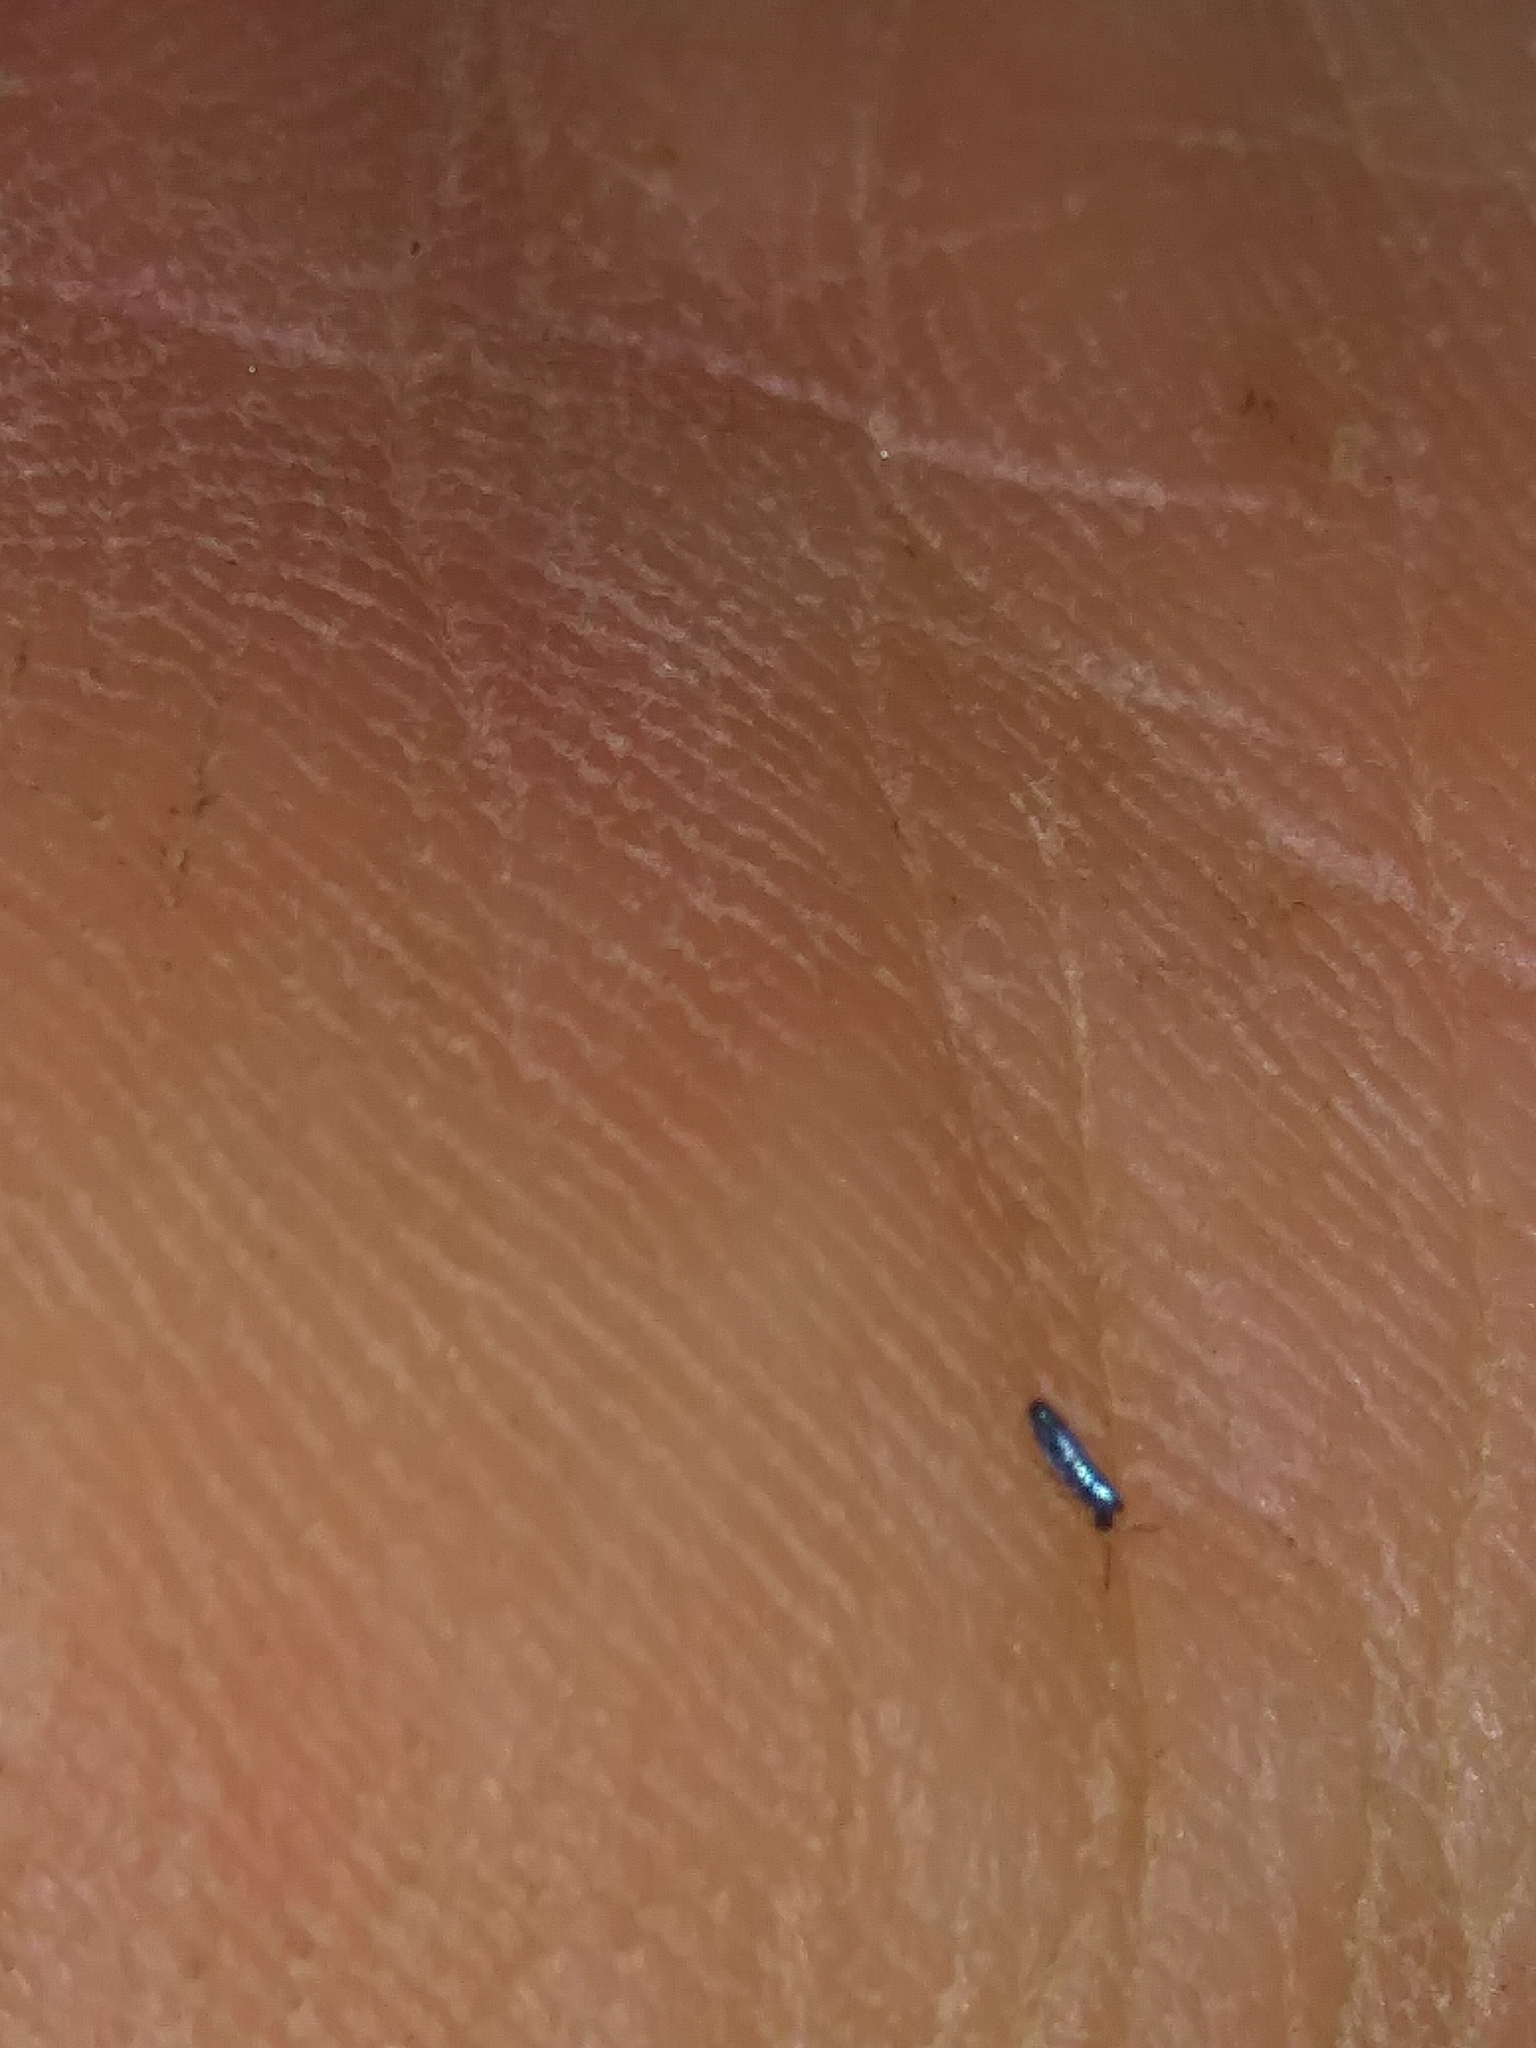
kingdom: Animalia
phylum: Arthropoda
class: Collembola
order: Entomobryomorpha
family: Entomobryidae
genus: Lepidocyrtus
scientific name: Lepidocyrtus paradoxus
